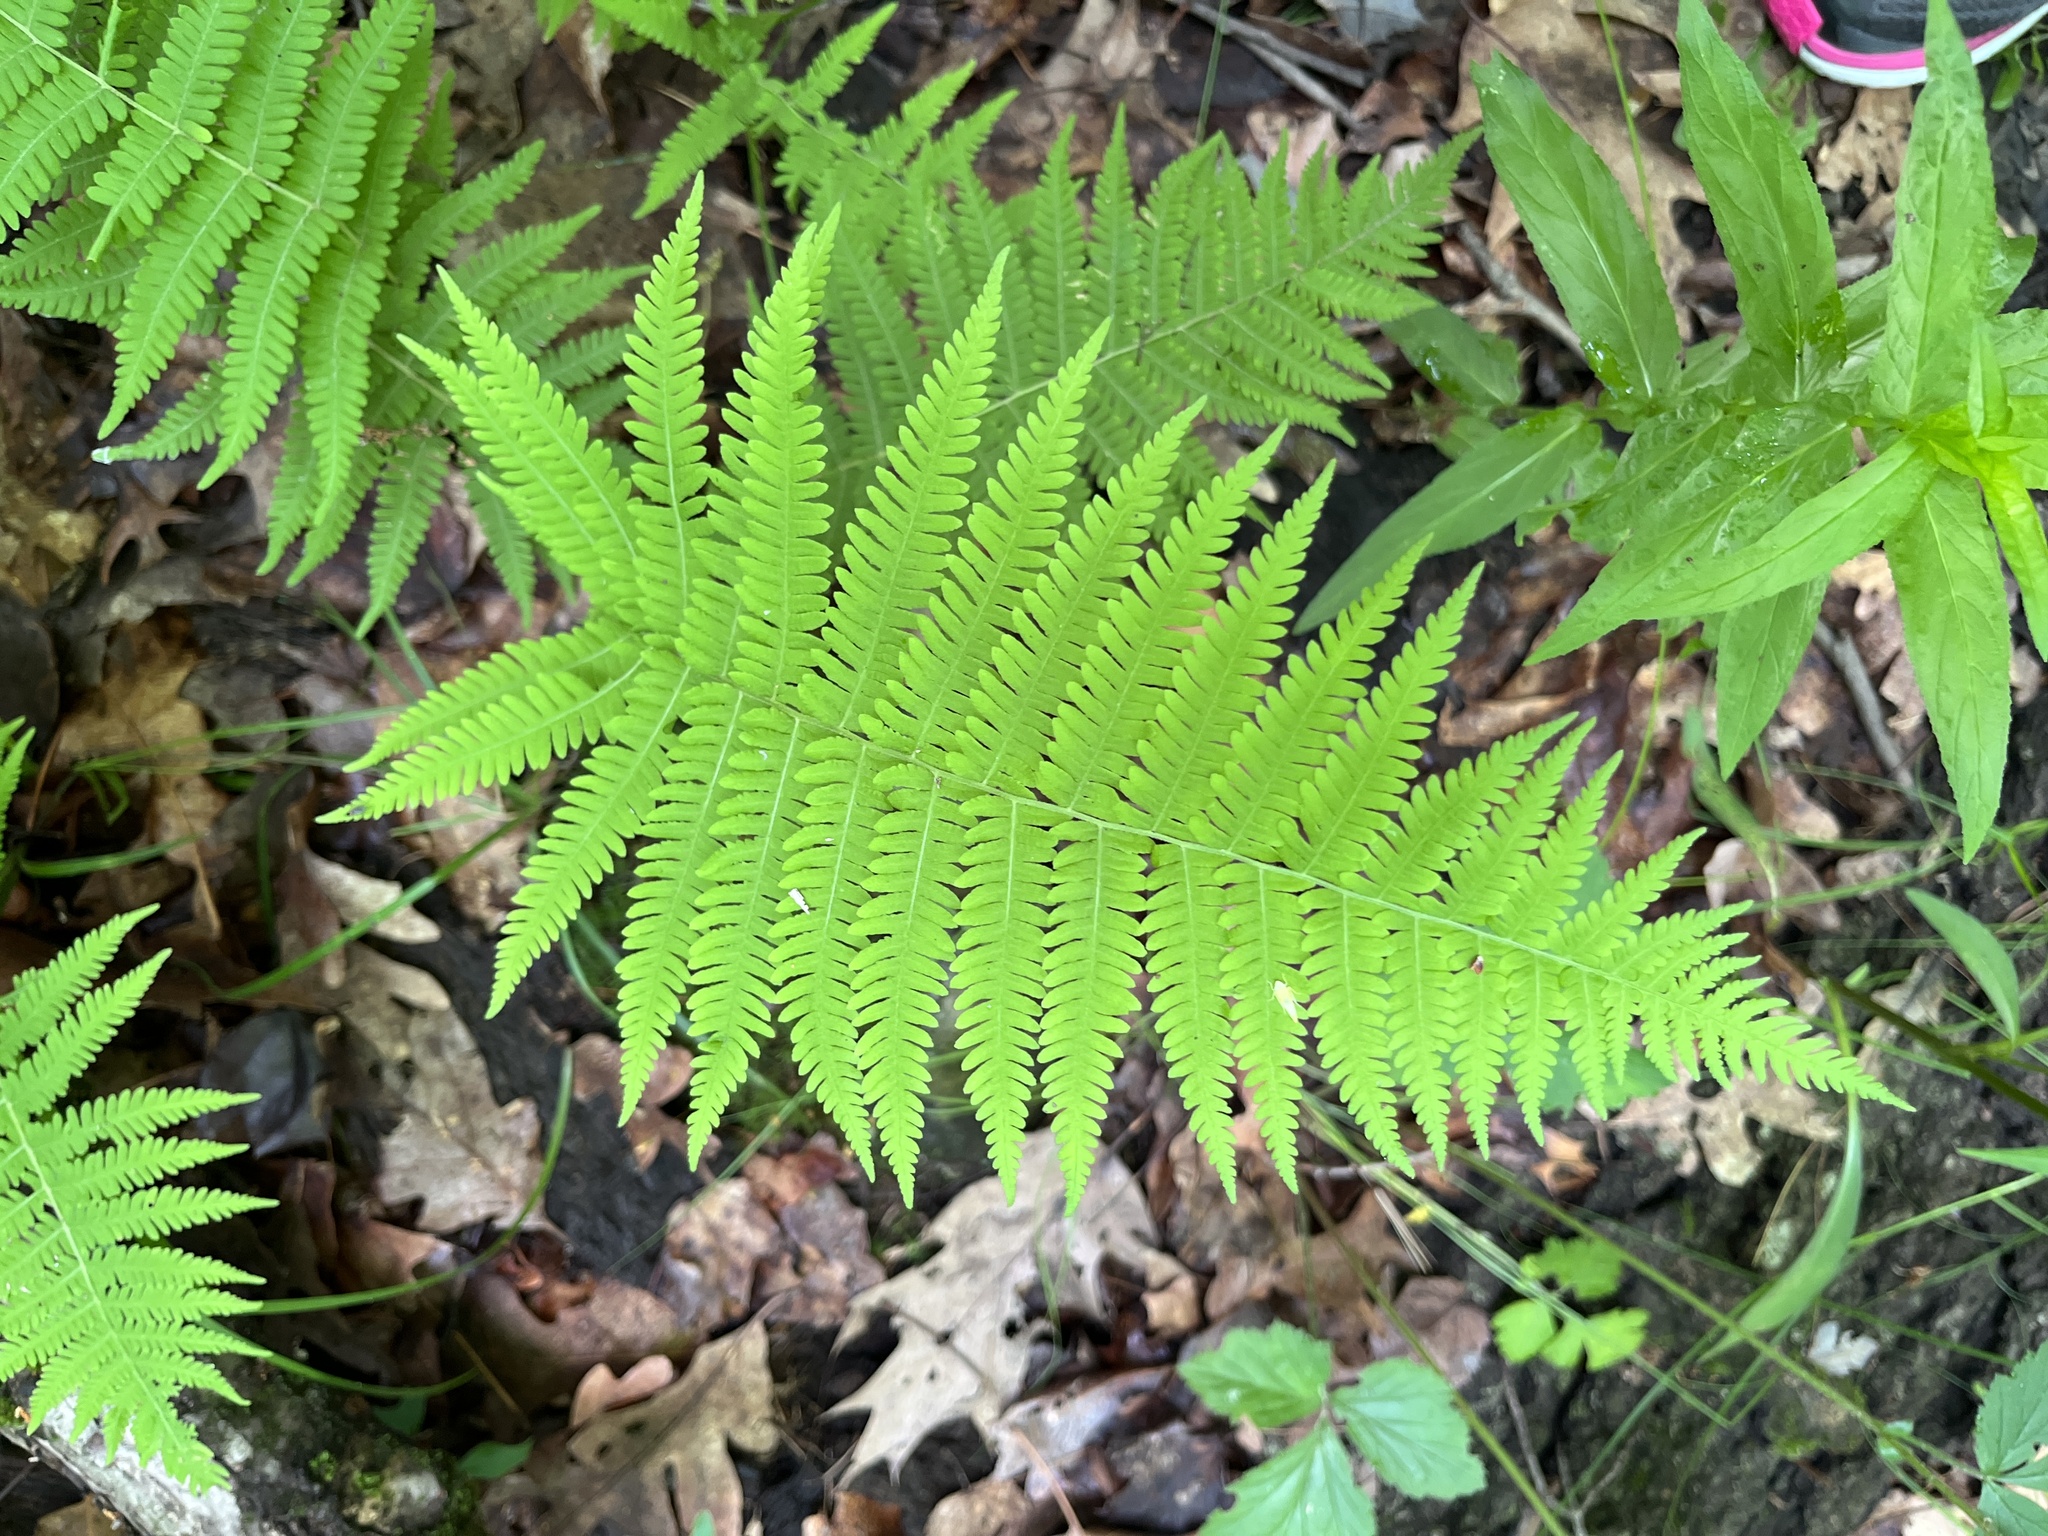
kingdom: Plantae
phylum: Tracheophyta
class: Polypodiopsida
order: Polypodiales
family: Thelypteridaceae
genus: Amauropelta
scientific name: Amauropelta noveboracensis
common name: New york fern
